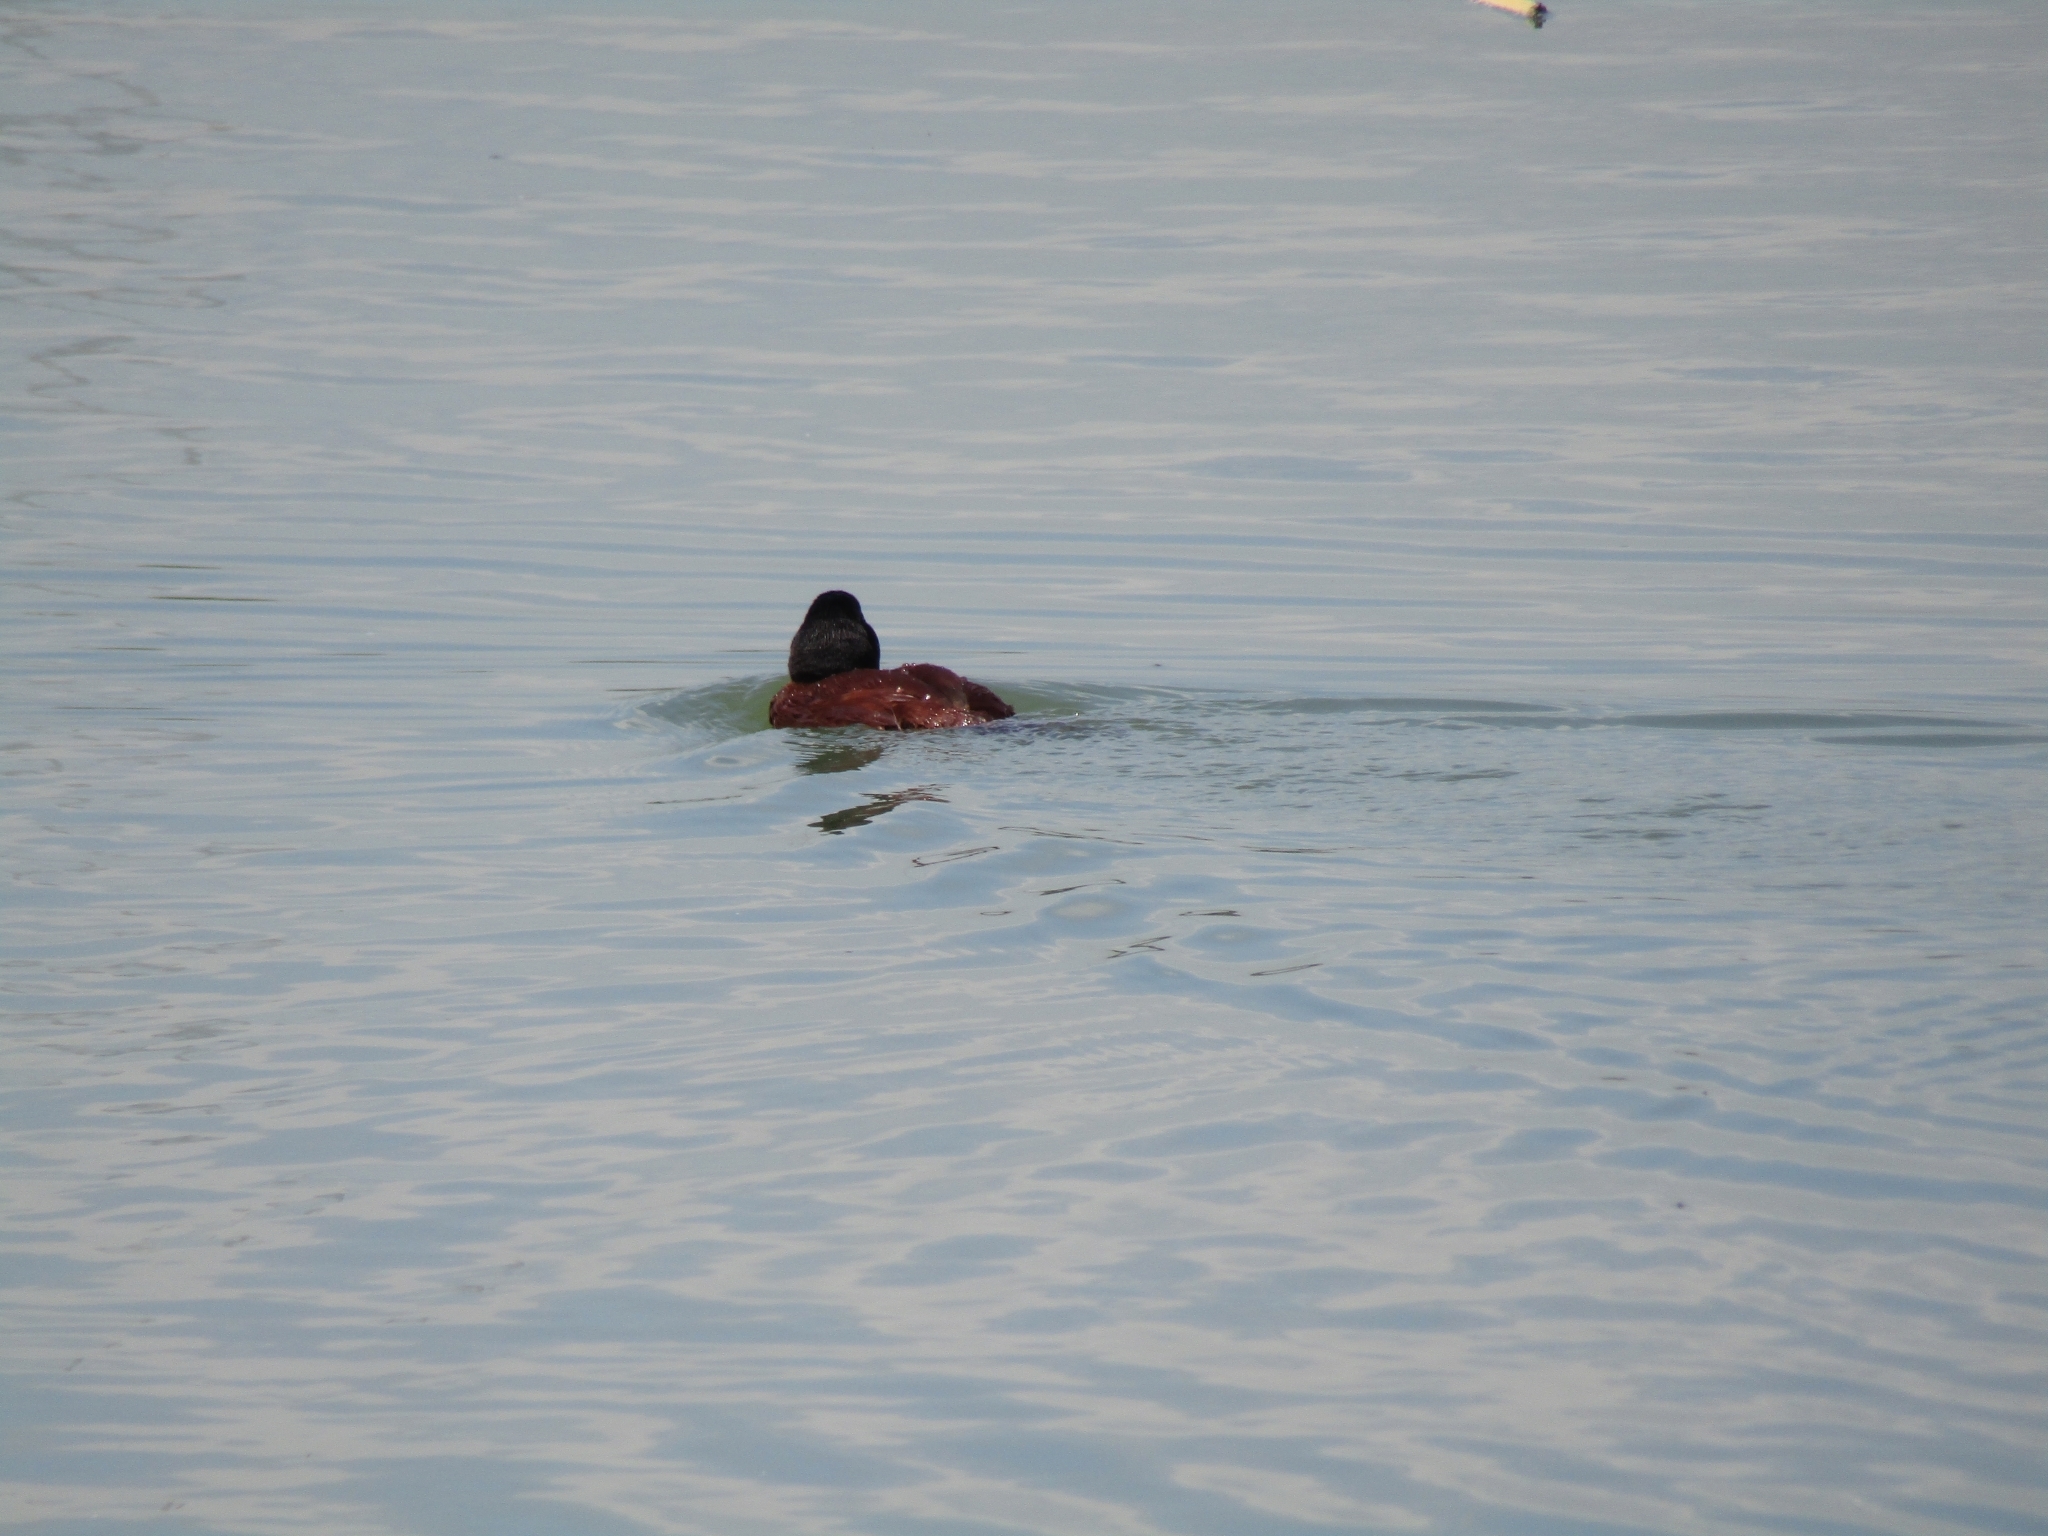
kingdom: Animalia
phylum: Chordata
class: Aves
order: Anseriformes
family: Anatidae
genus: Oxyura
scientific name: Oxyura vittata
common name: Lake duck
